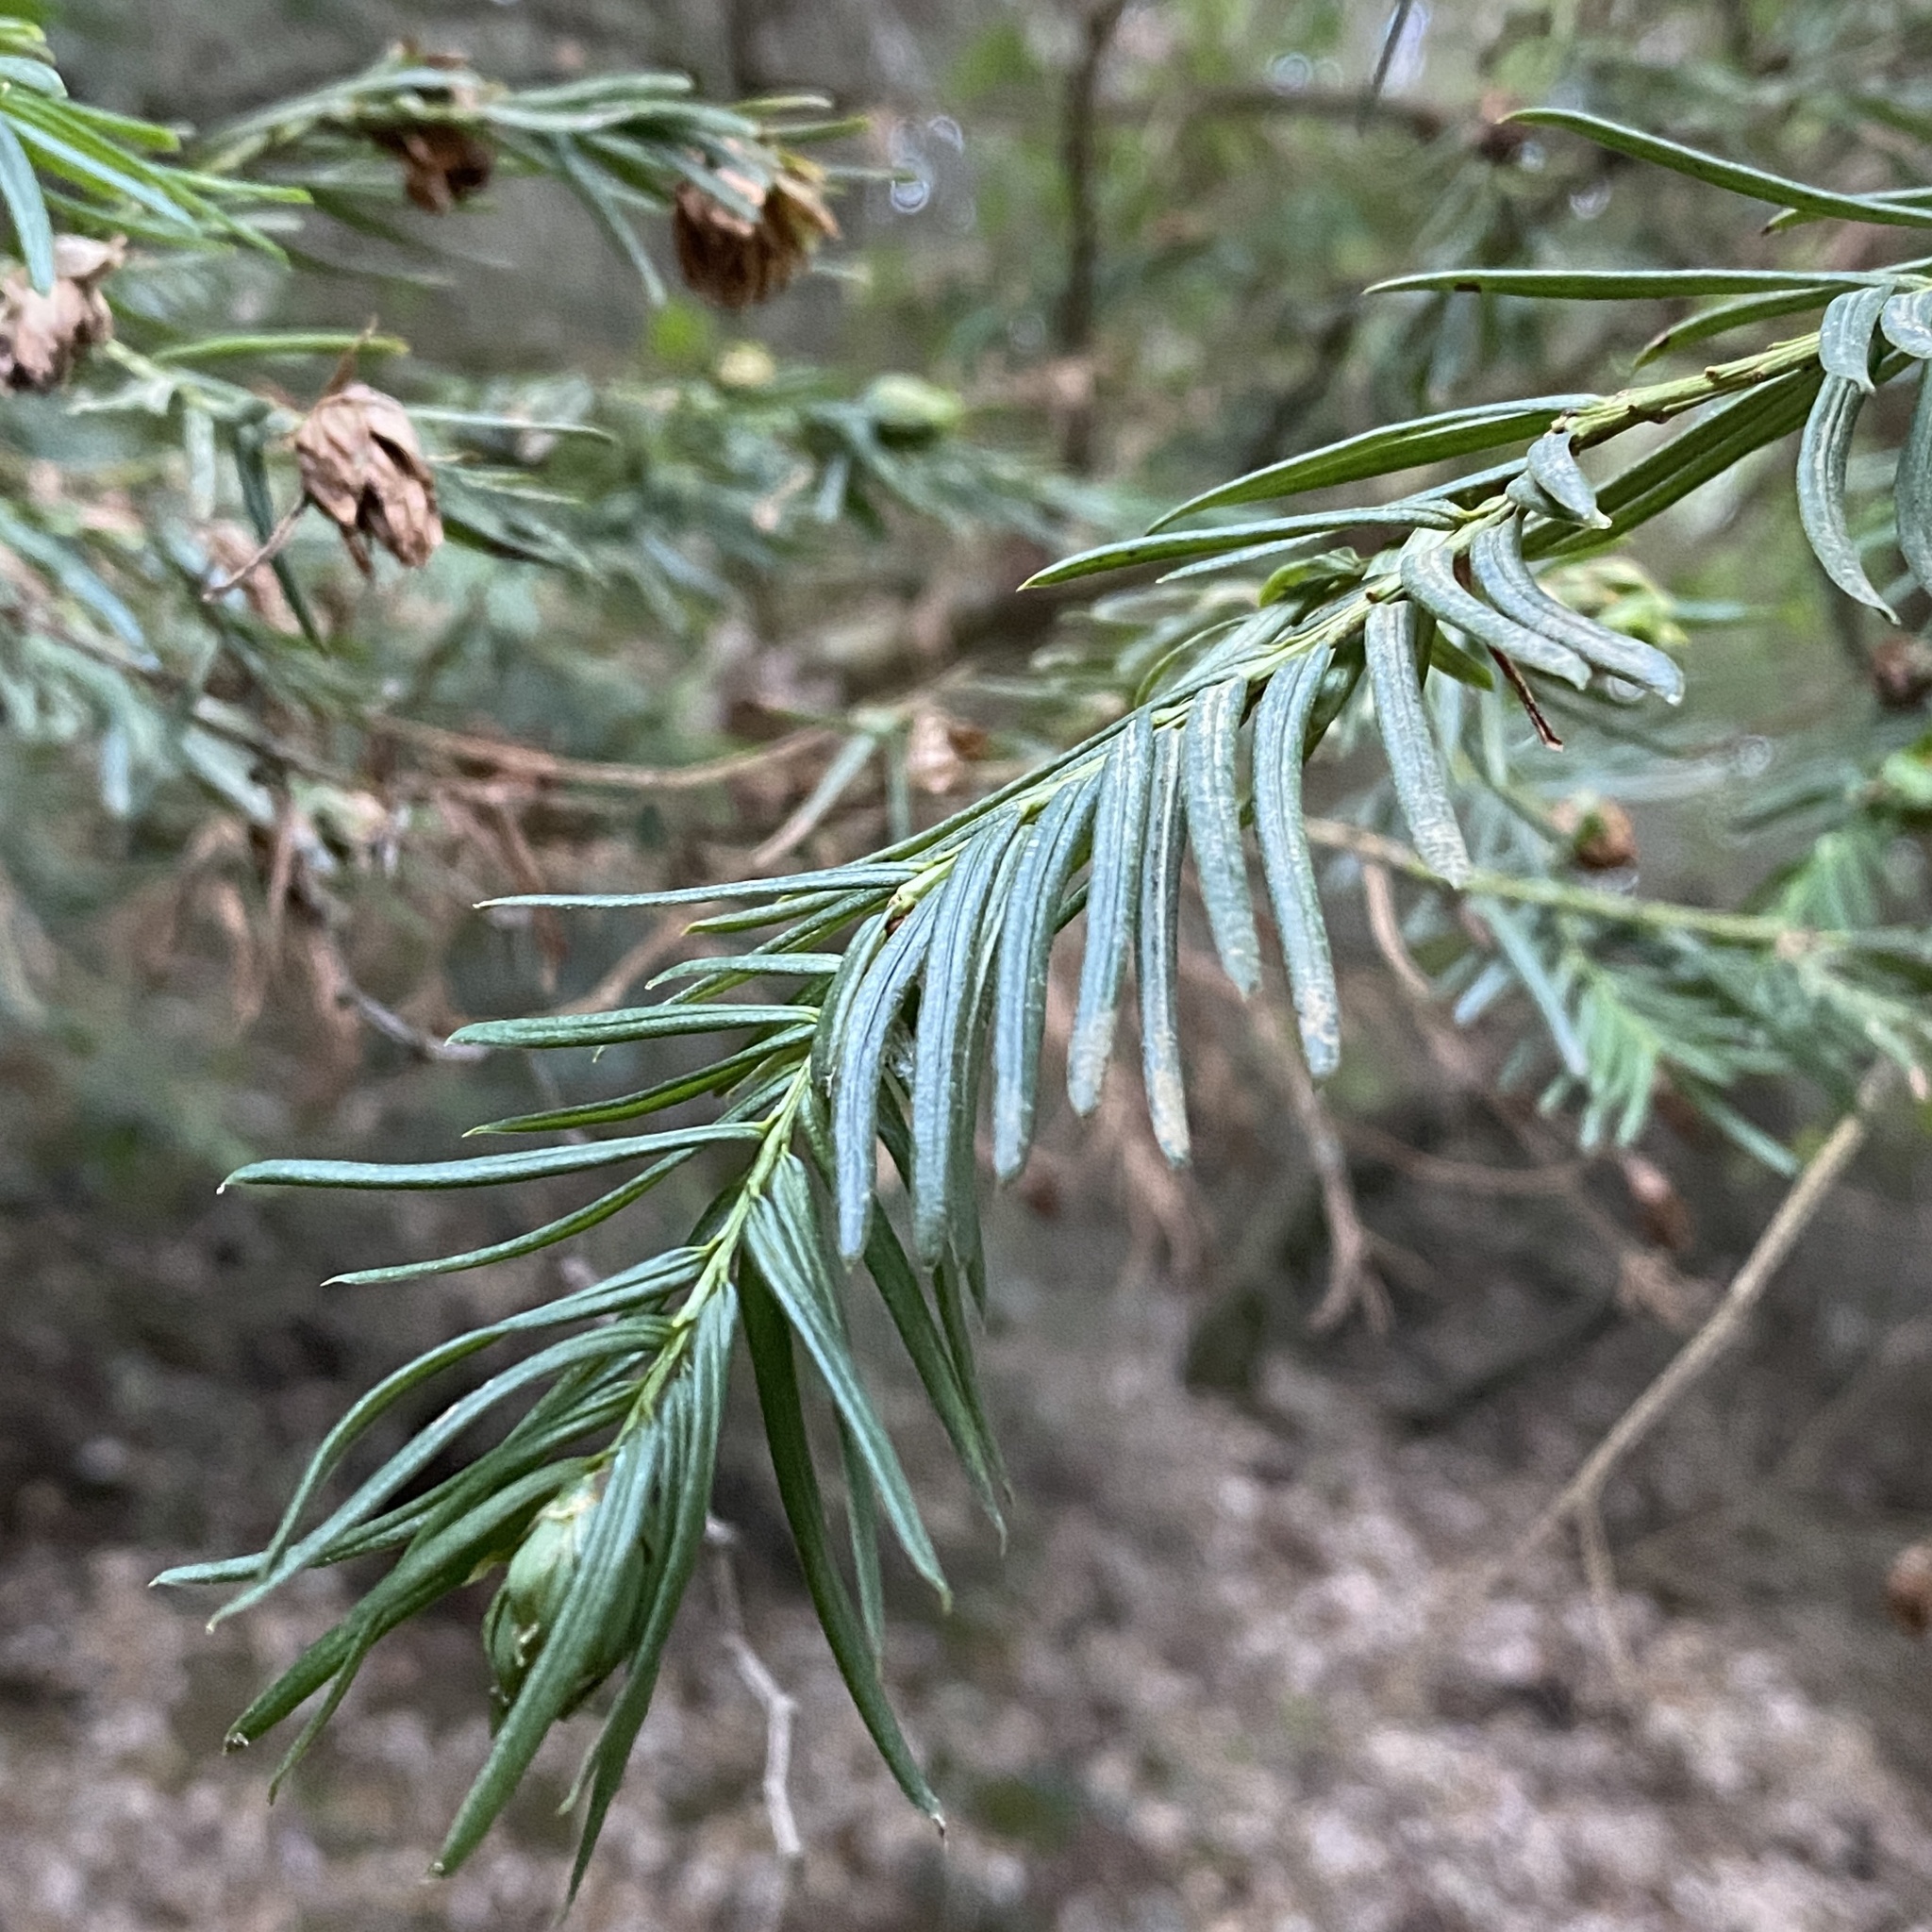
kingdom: Animalia
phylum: Arthropoda
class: Insecta
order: Diptera
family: Cecidomyiidae
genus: Taxomyia
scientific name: Taxomyia taxi
